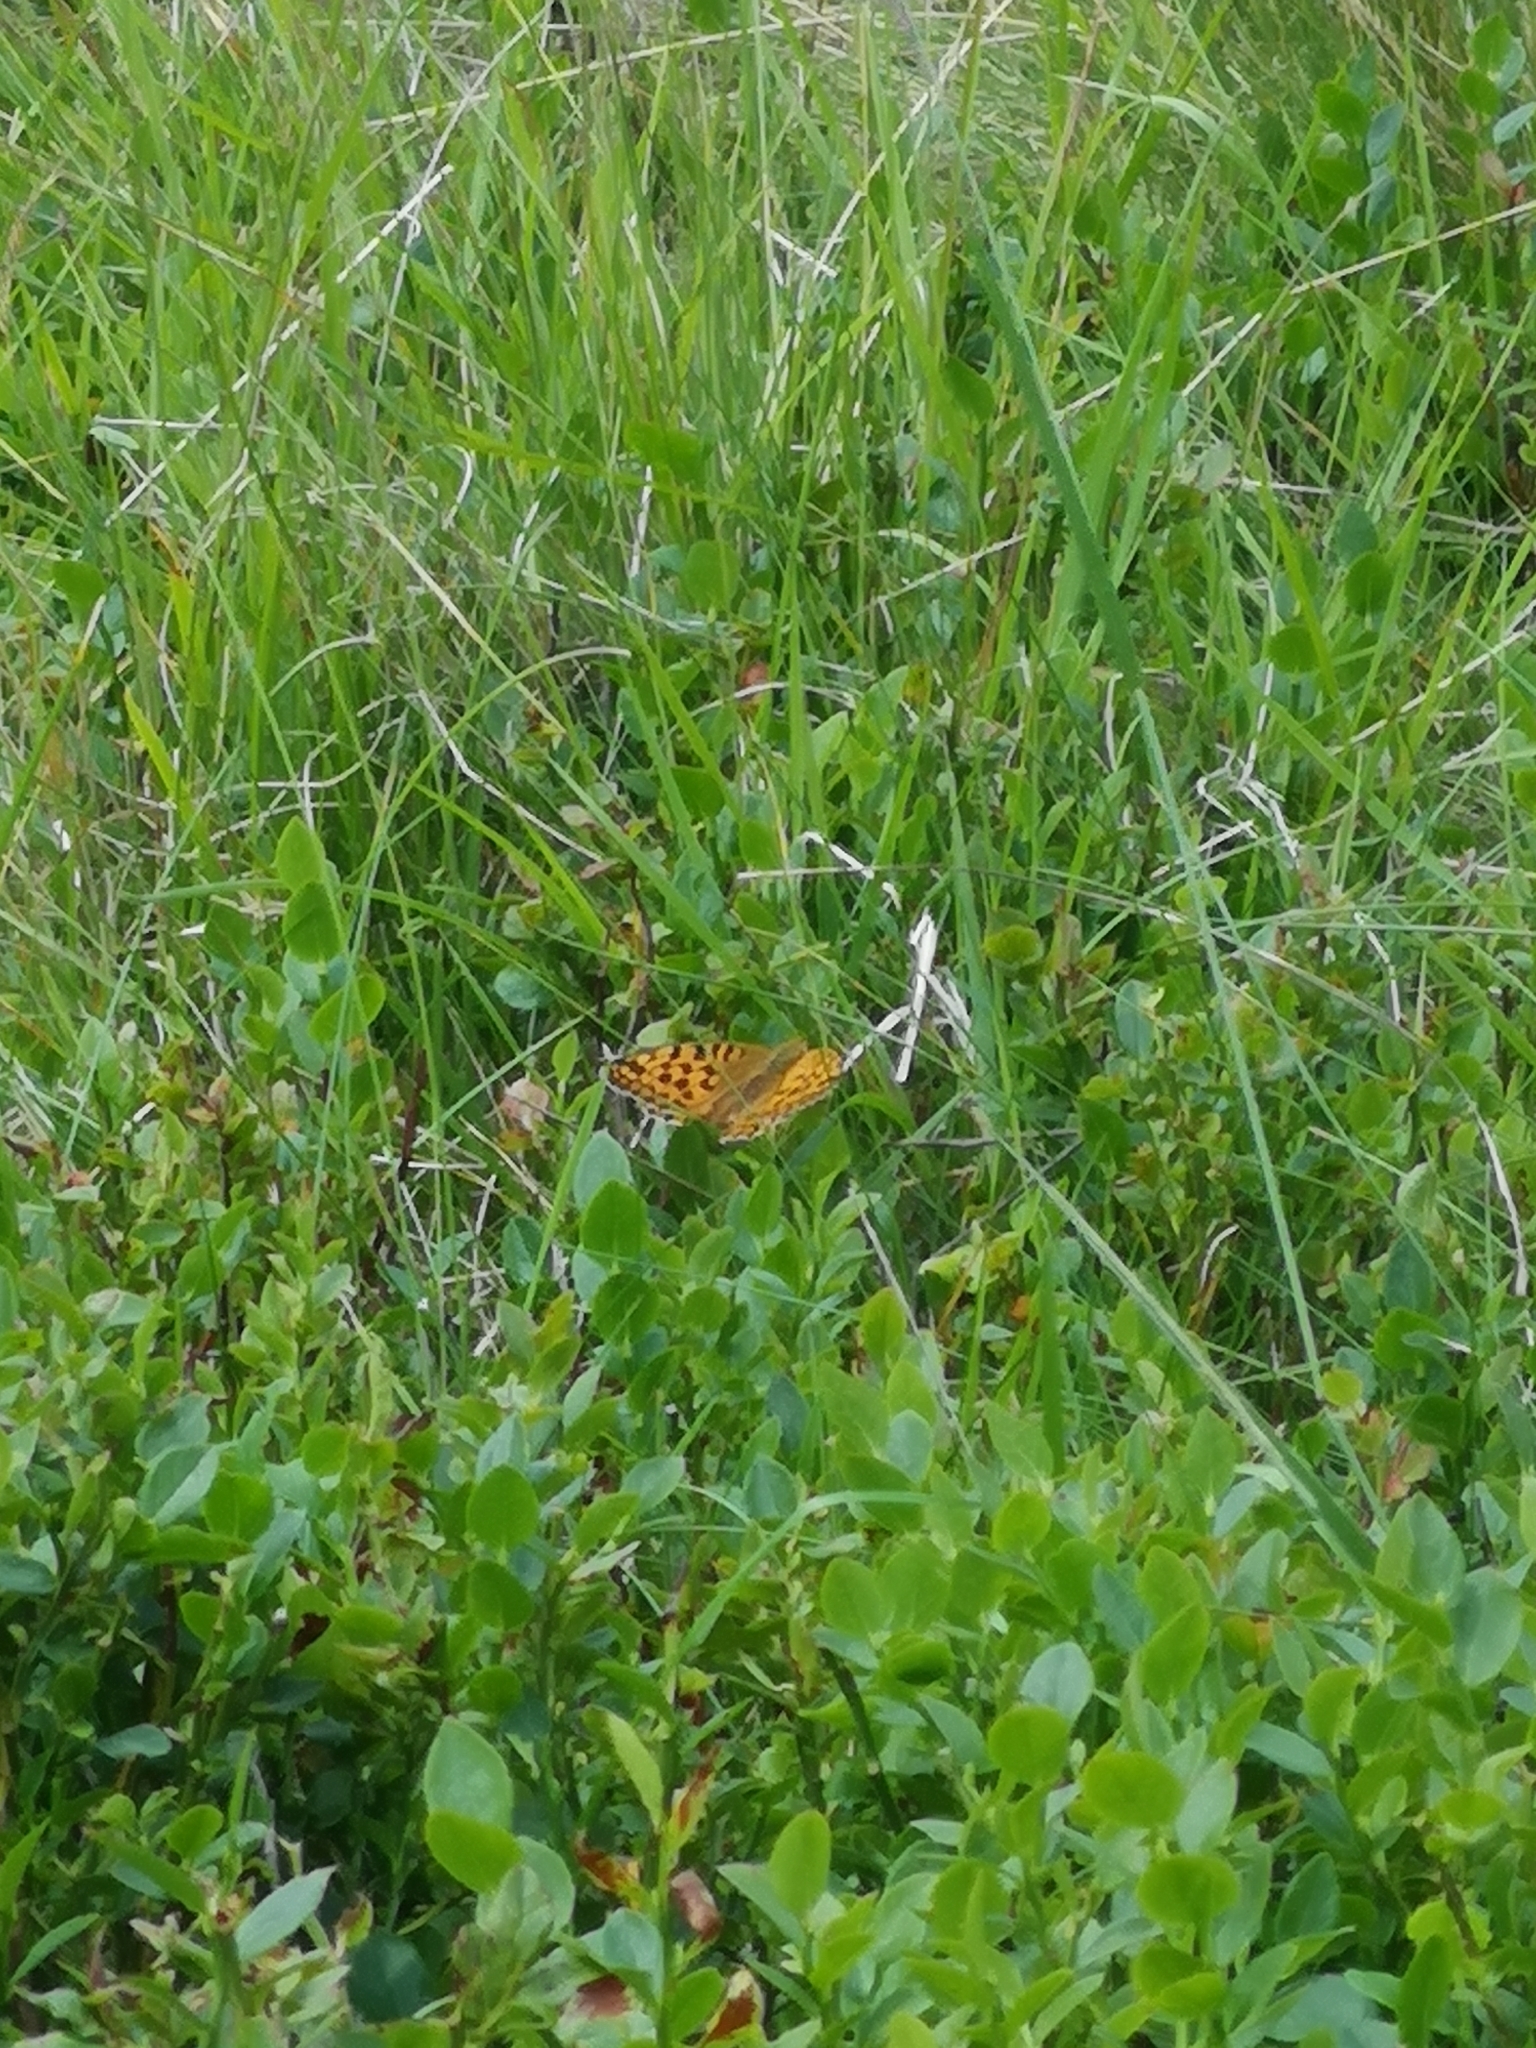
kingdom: Animalia
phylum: Arthropoda
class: Insecta
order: Lepidoptera
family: Nymphalidae
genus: Fabriciana
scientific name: Fabriciana adippe
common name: High brown fritillary
